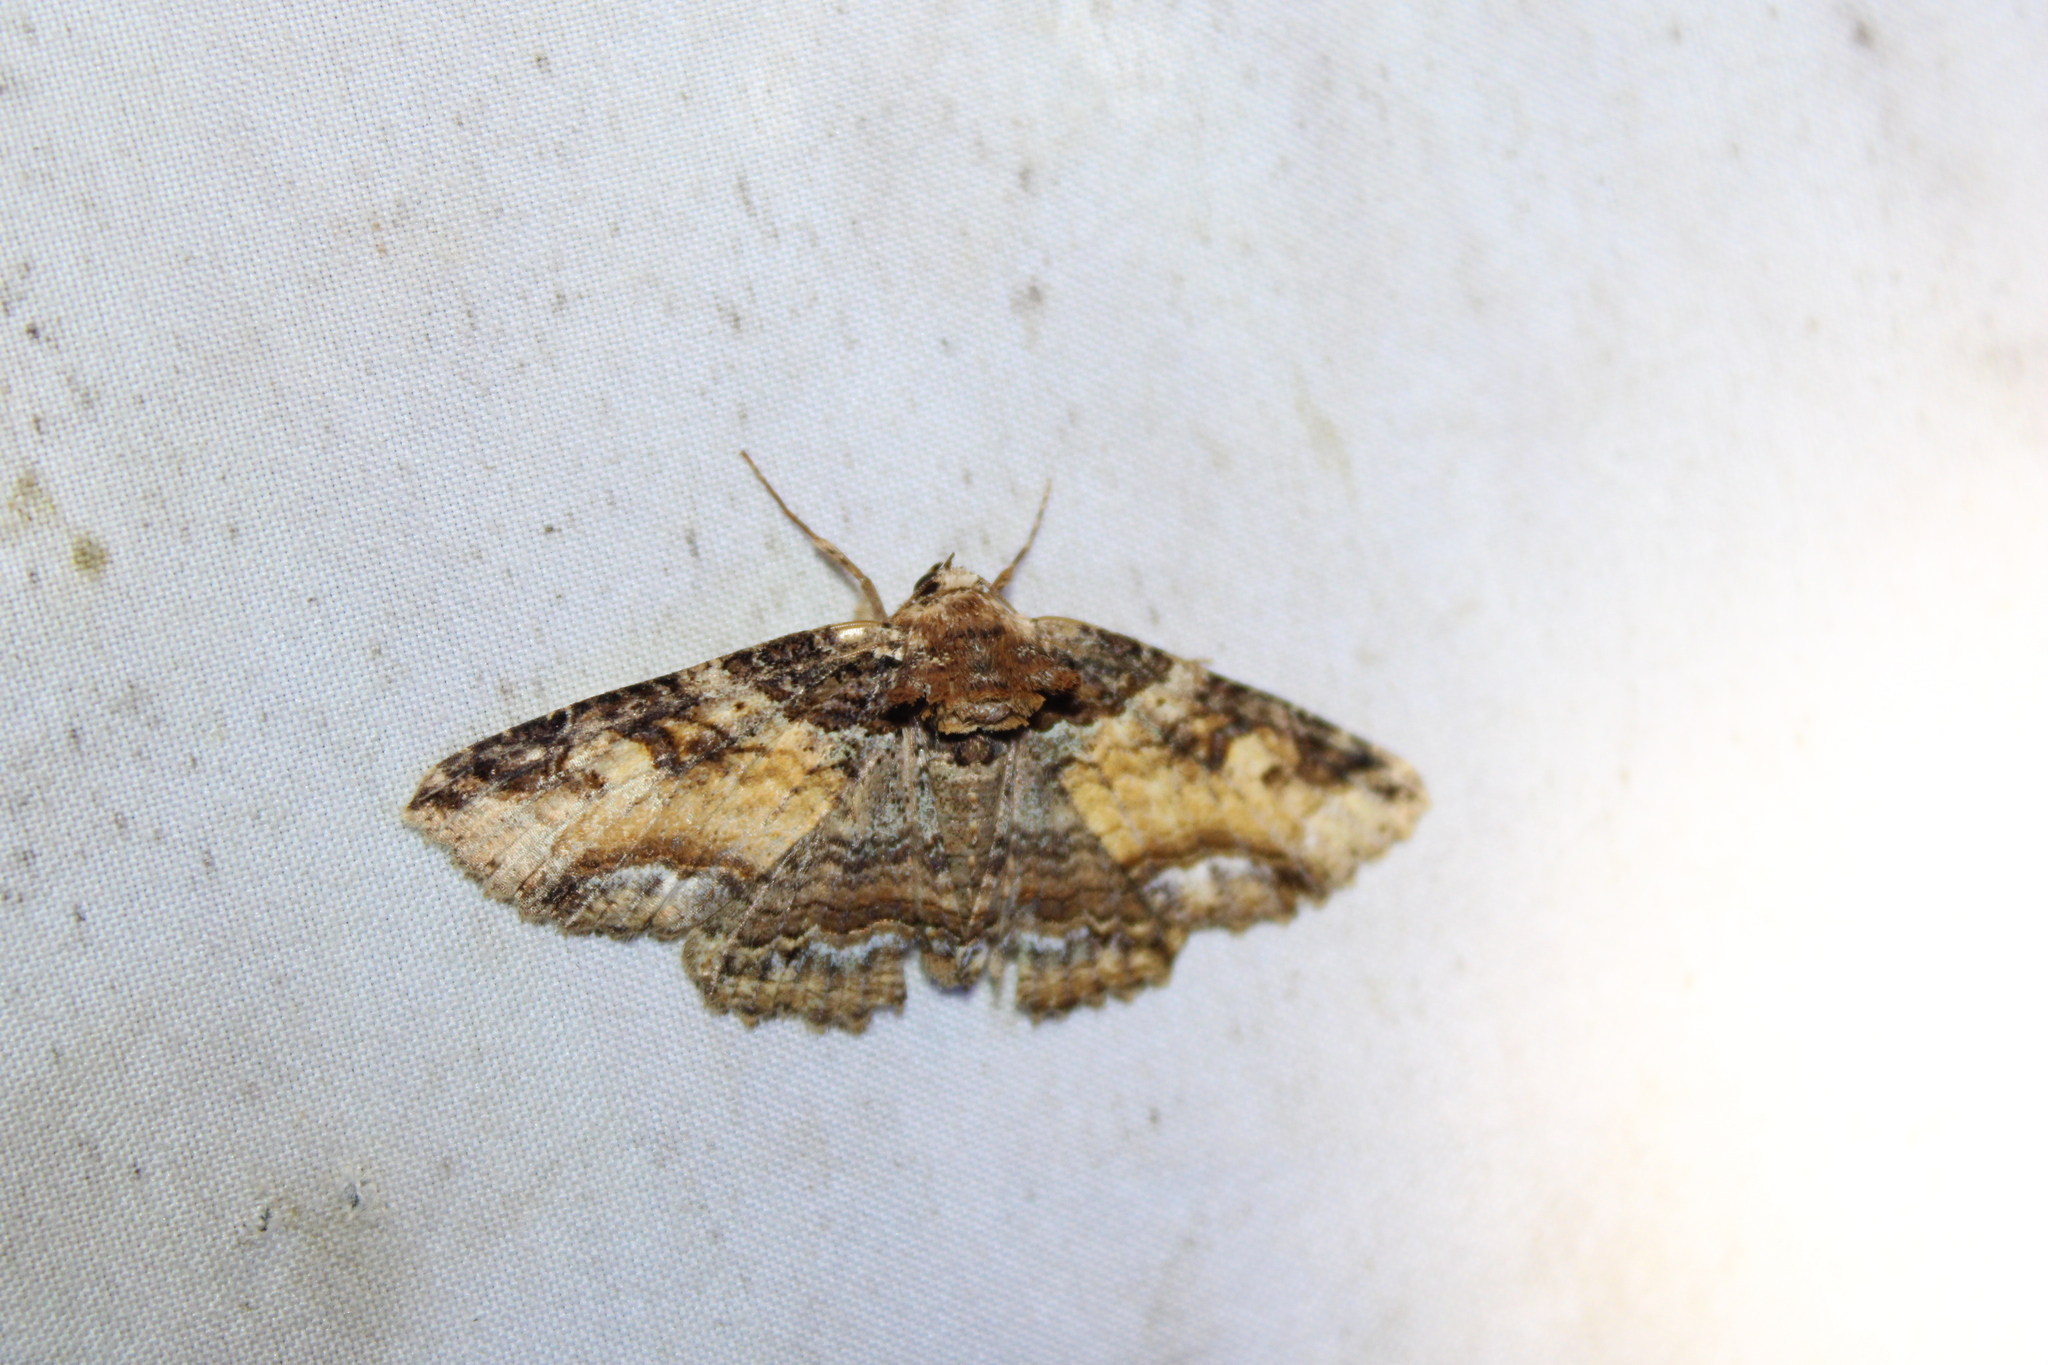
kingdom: Animalia
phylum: Arthropoda
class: Insecta
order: Lepidoptera
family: Erebidae
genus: Zale
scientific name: Zale minerea
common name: Colorful zale moth
